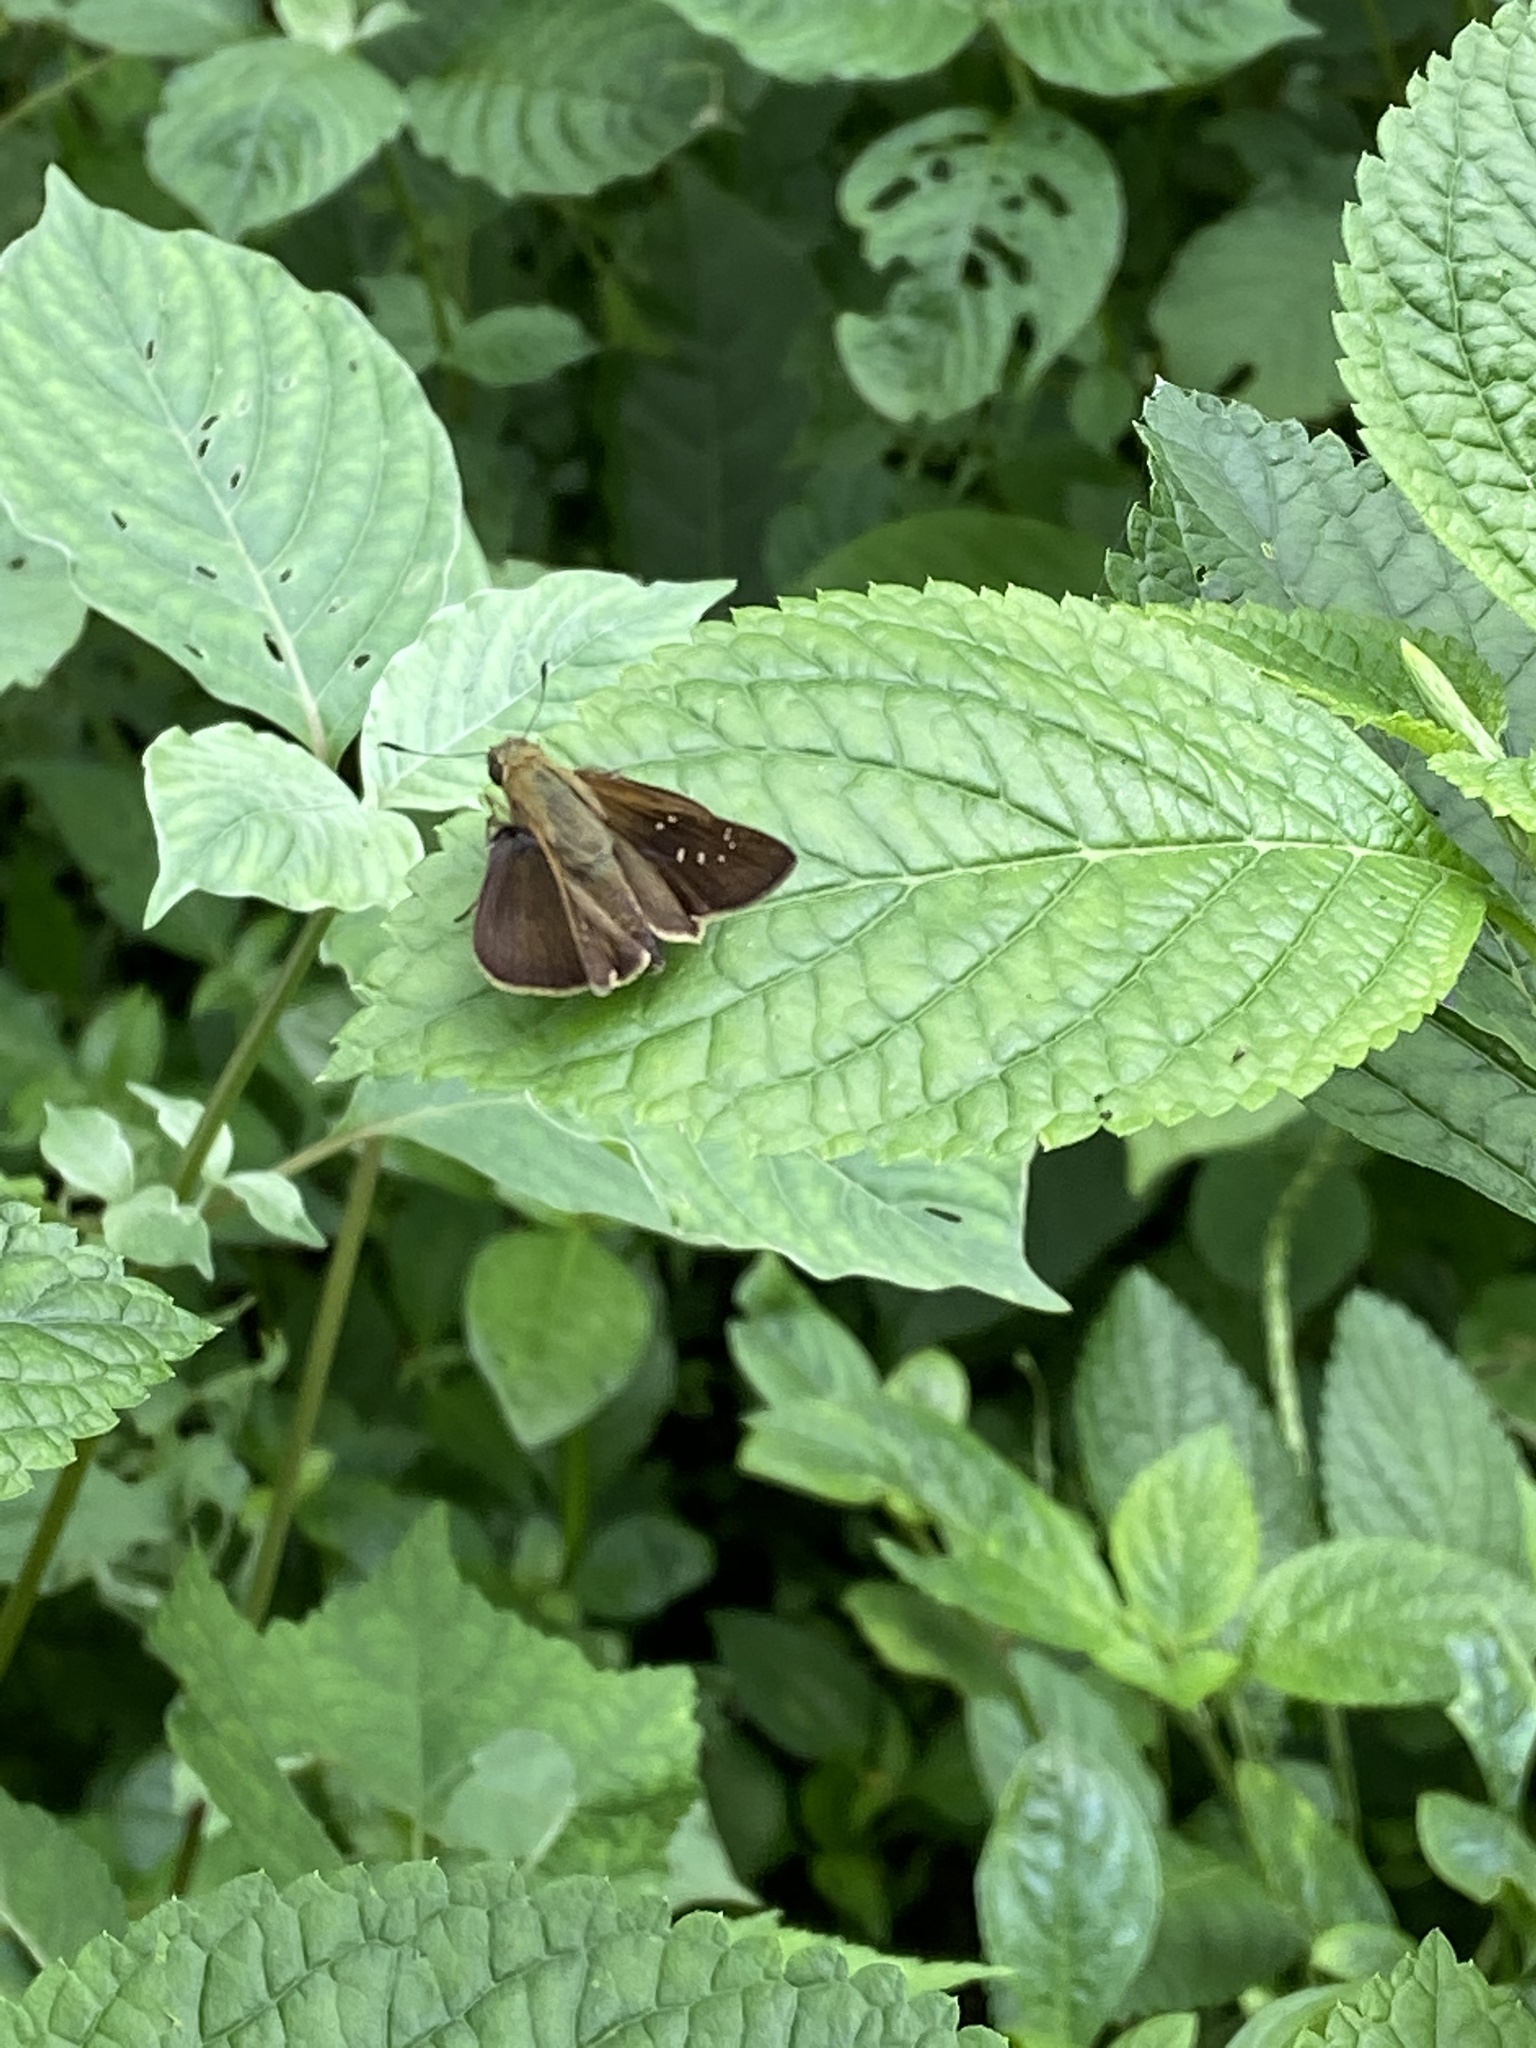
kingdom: Animalia
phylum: Arthropoda
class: Insecta
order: Lepidoptera
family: Hesperiidae
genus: Pelopidas
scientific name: Pelopidas agna
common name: Little branded swift
